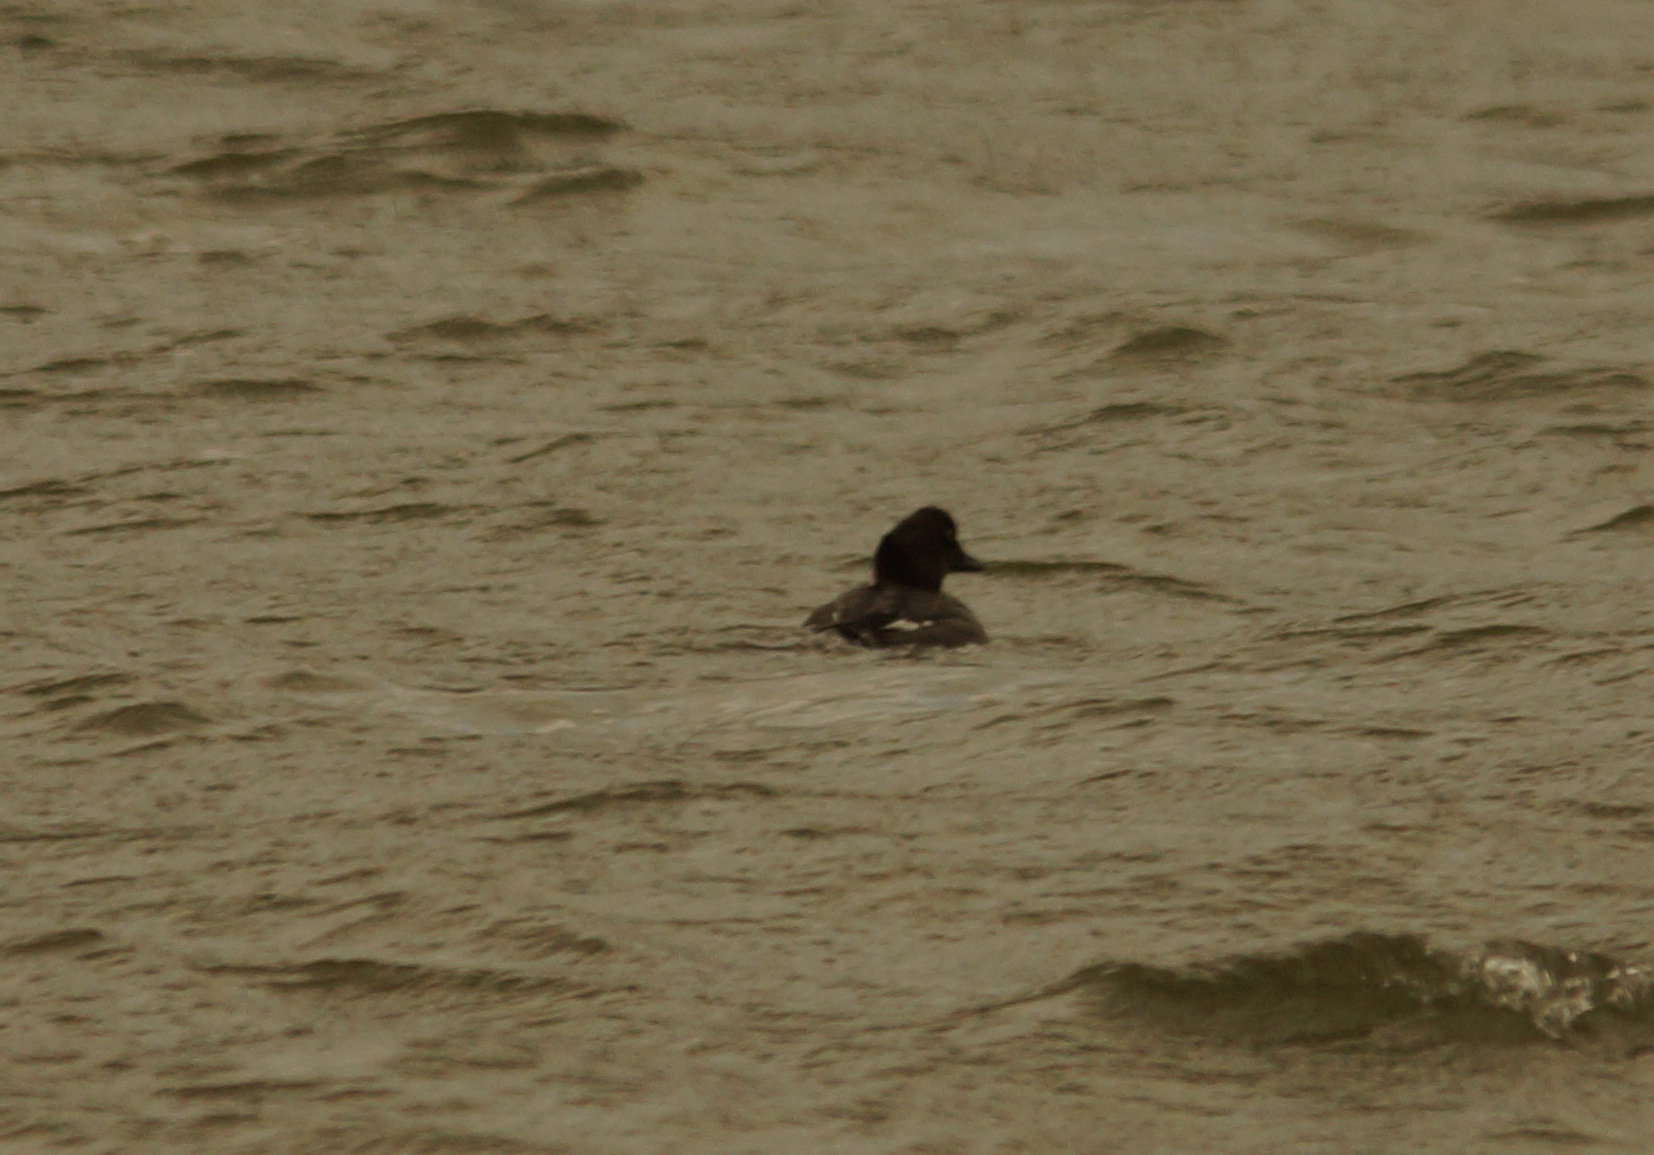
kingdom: Animalia
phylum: Chordata
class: Aves
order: Anseriformes
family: Anatidae
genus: Bucephala
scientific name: Bucephala clangula
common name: Common goldeneye
